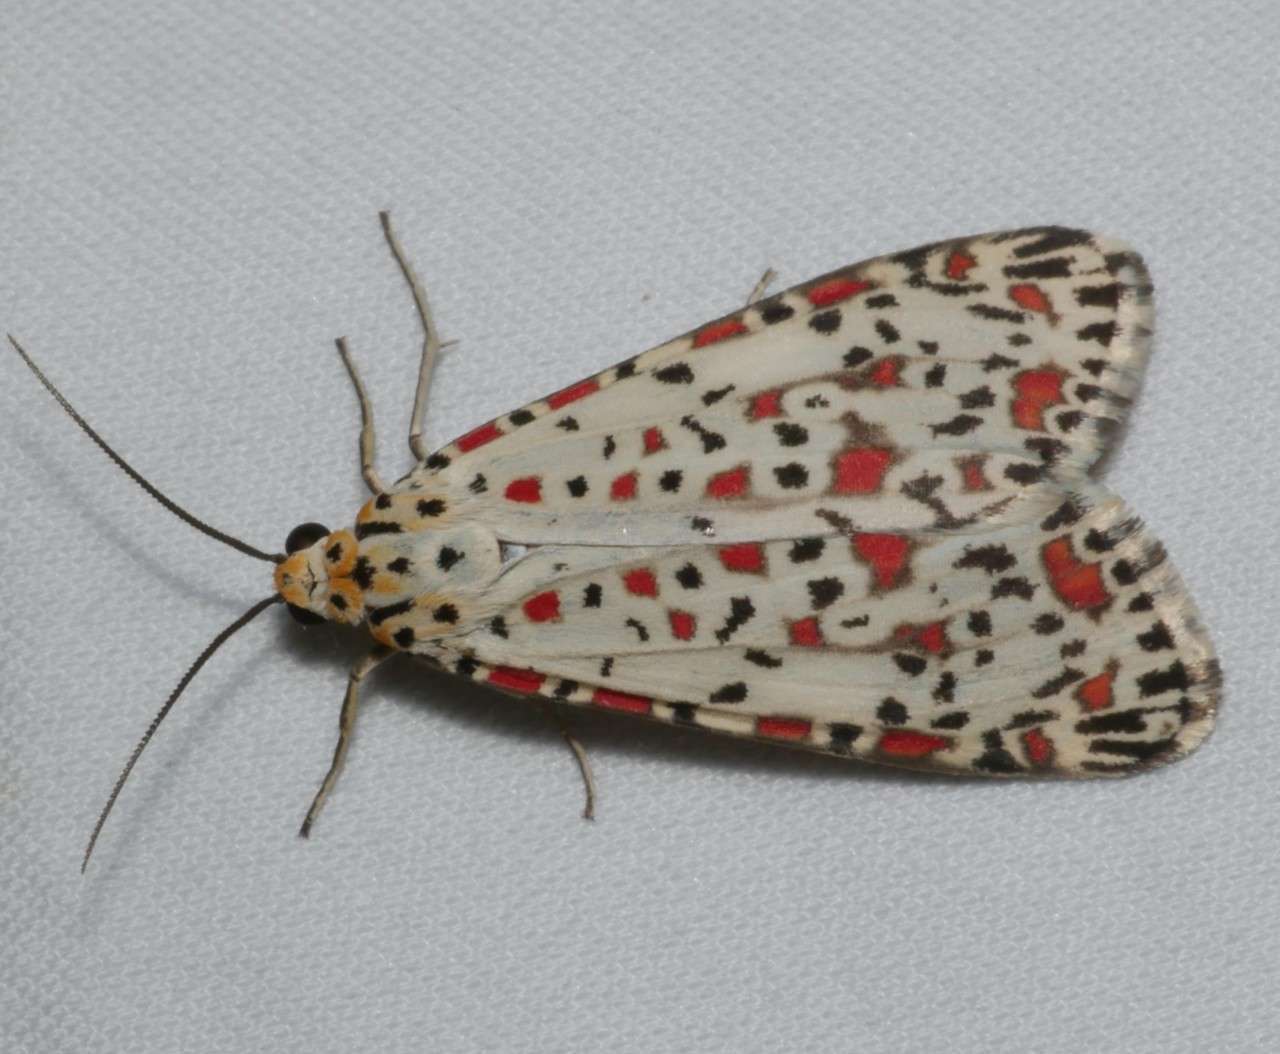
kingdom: Animalia
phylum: Arthropoda
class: Insecta
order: Lepidoptera
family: Erebidae
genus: Utetheisa
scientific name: Utetheisa pulchelloides
